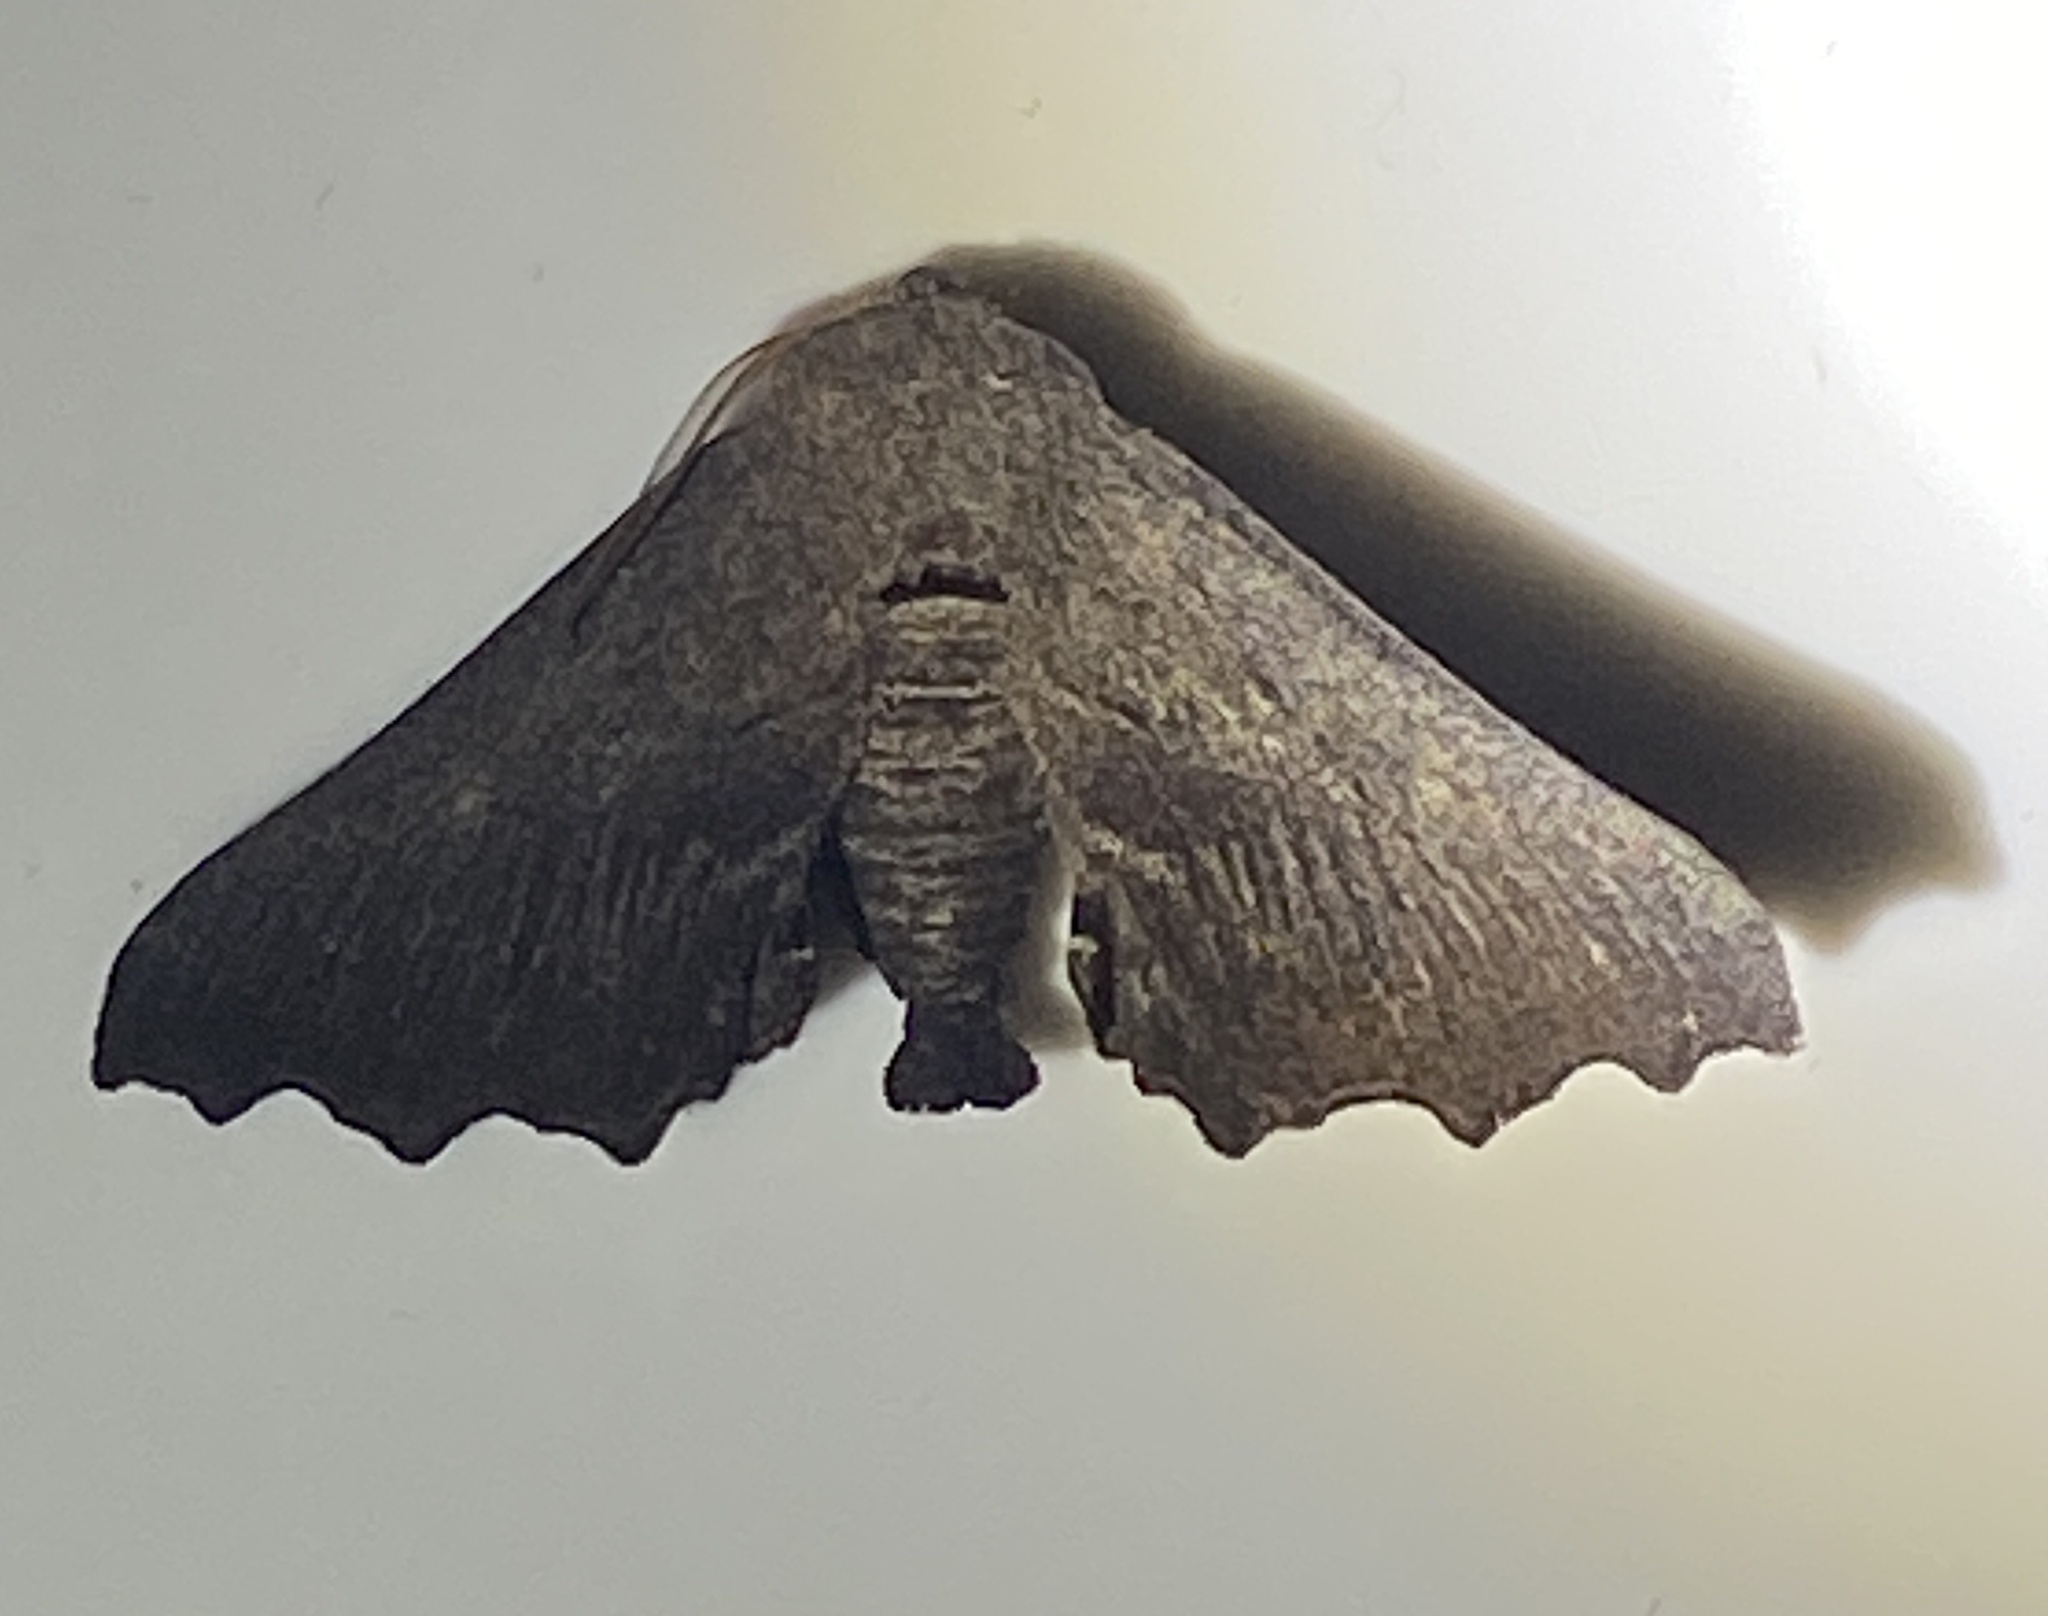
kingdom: Animalia
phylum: Arthropoda
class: Insecta
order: Lepidoptera
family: Geometridae
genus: Amphiclasta
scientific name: Amphiclasta lygaea
